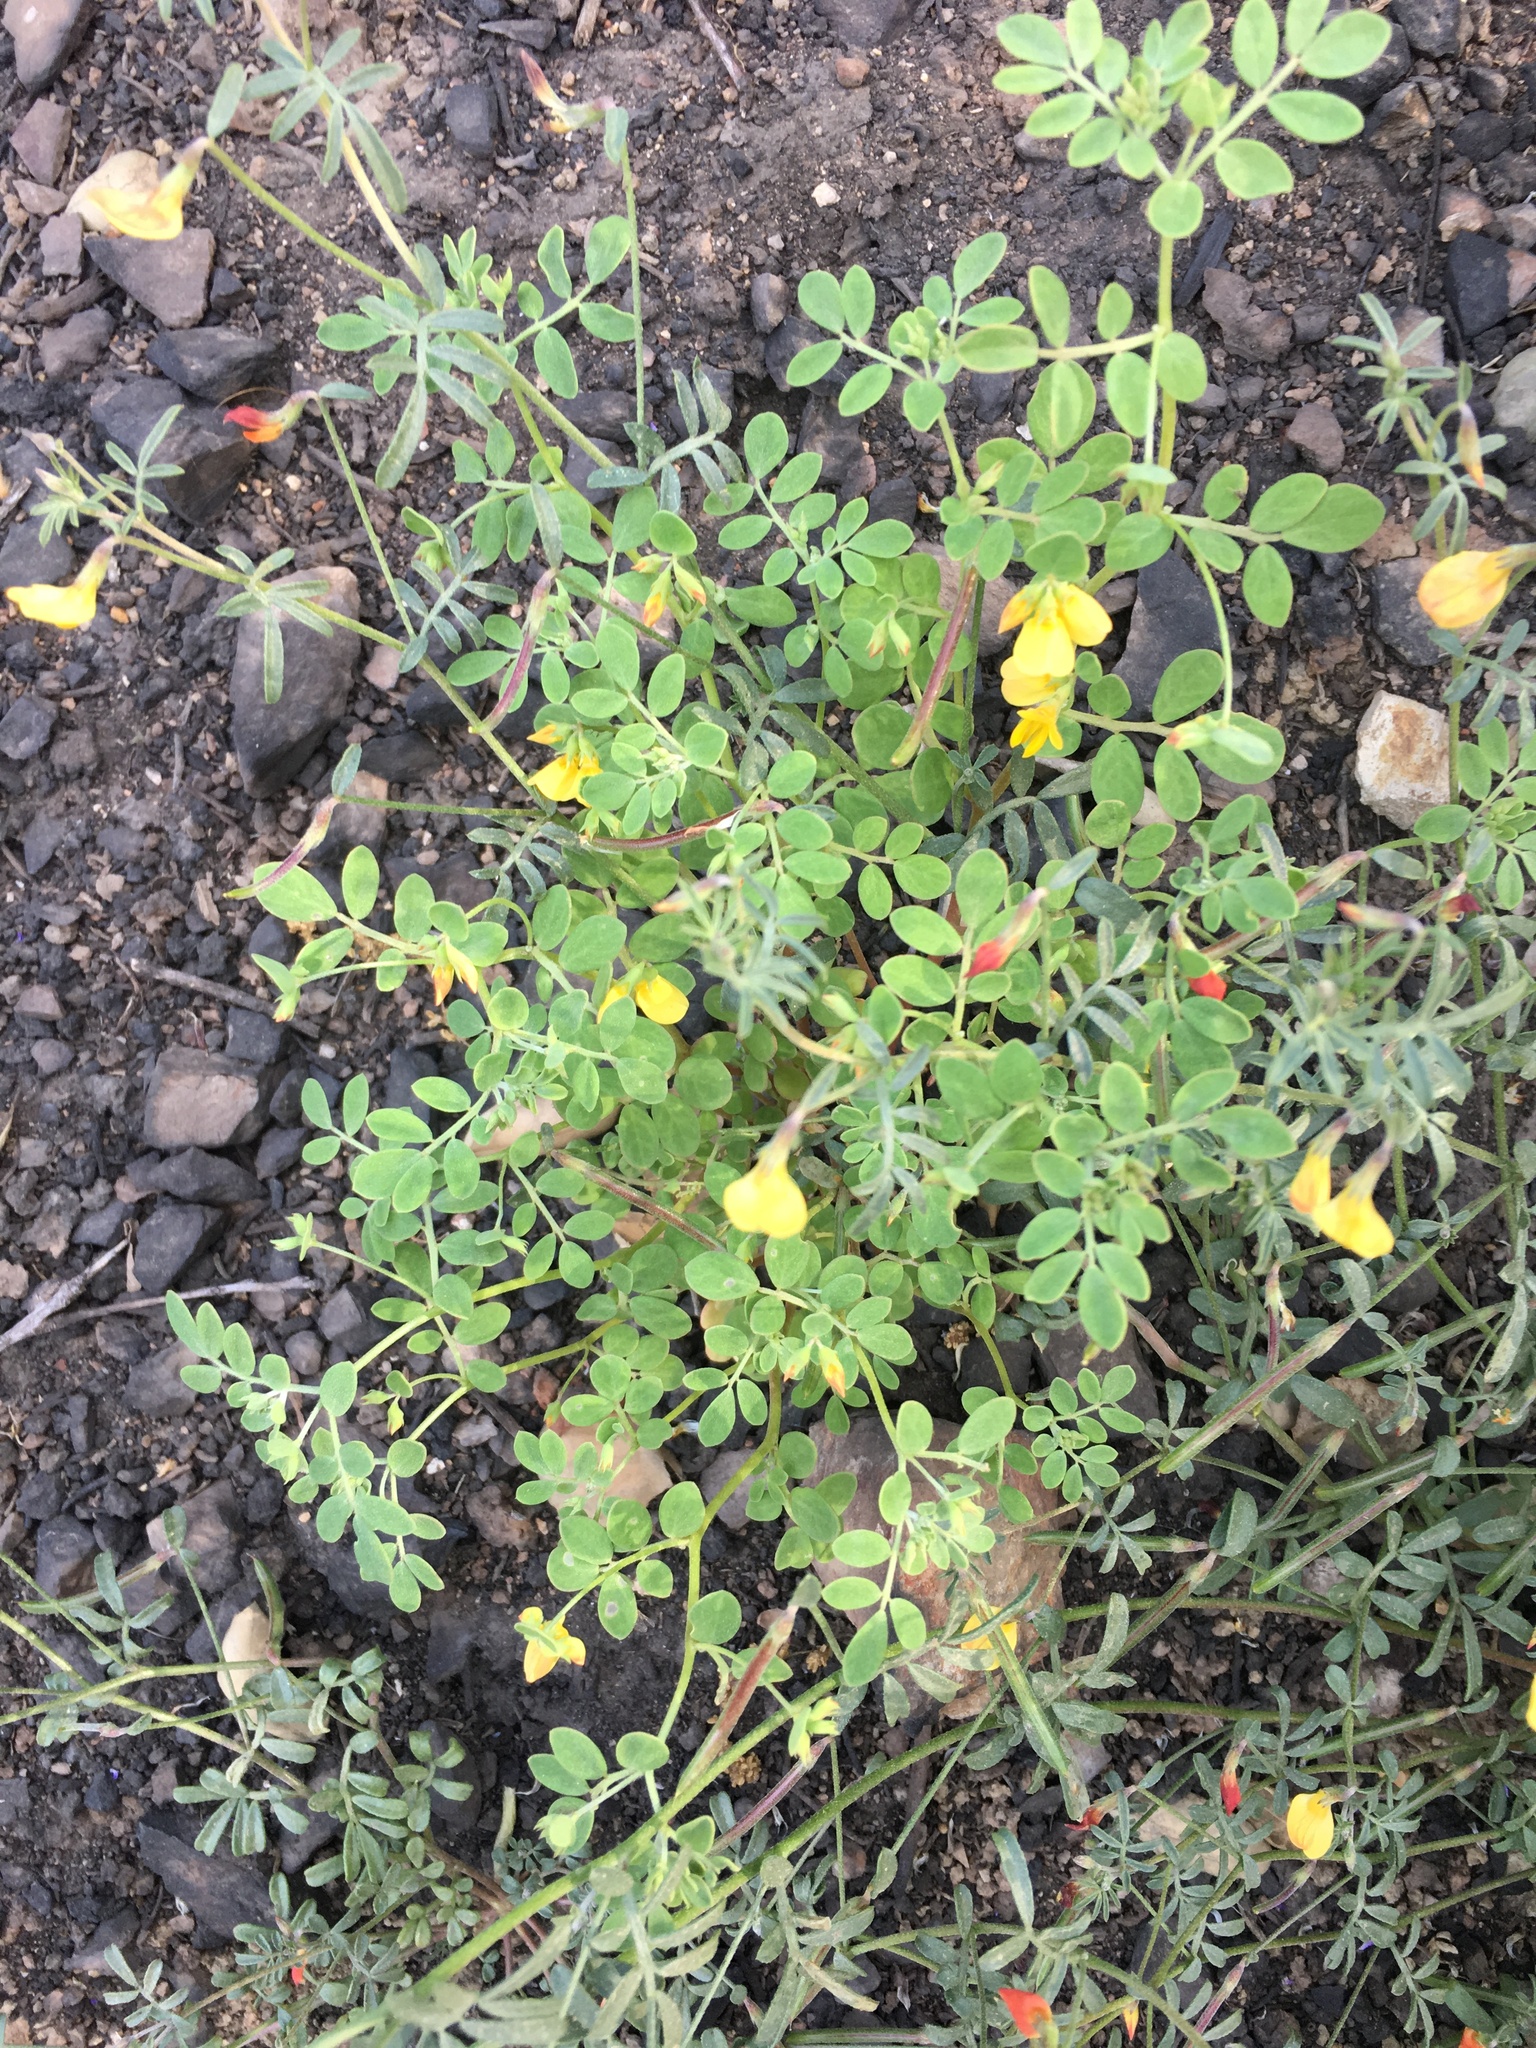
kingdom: Plantae
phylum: Tracheophyta
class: Magnoliopsida
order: Fabales
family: Fabaceae
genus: Acmispon
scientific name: Acmispon maritimus
